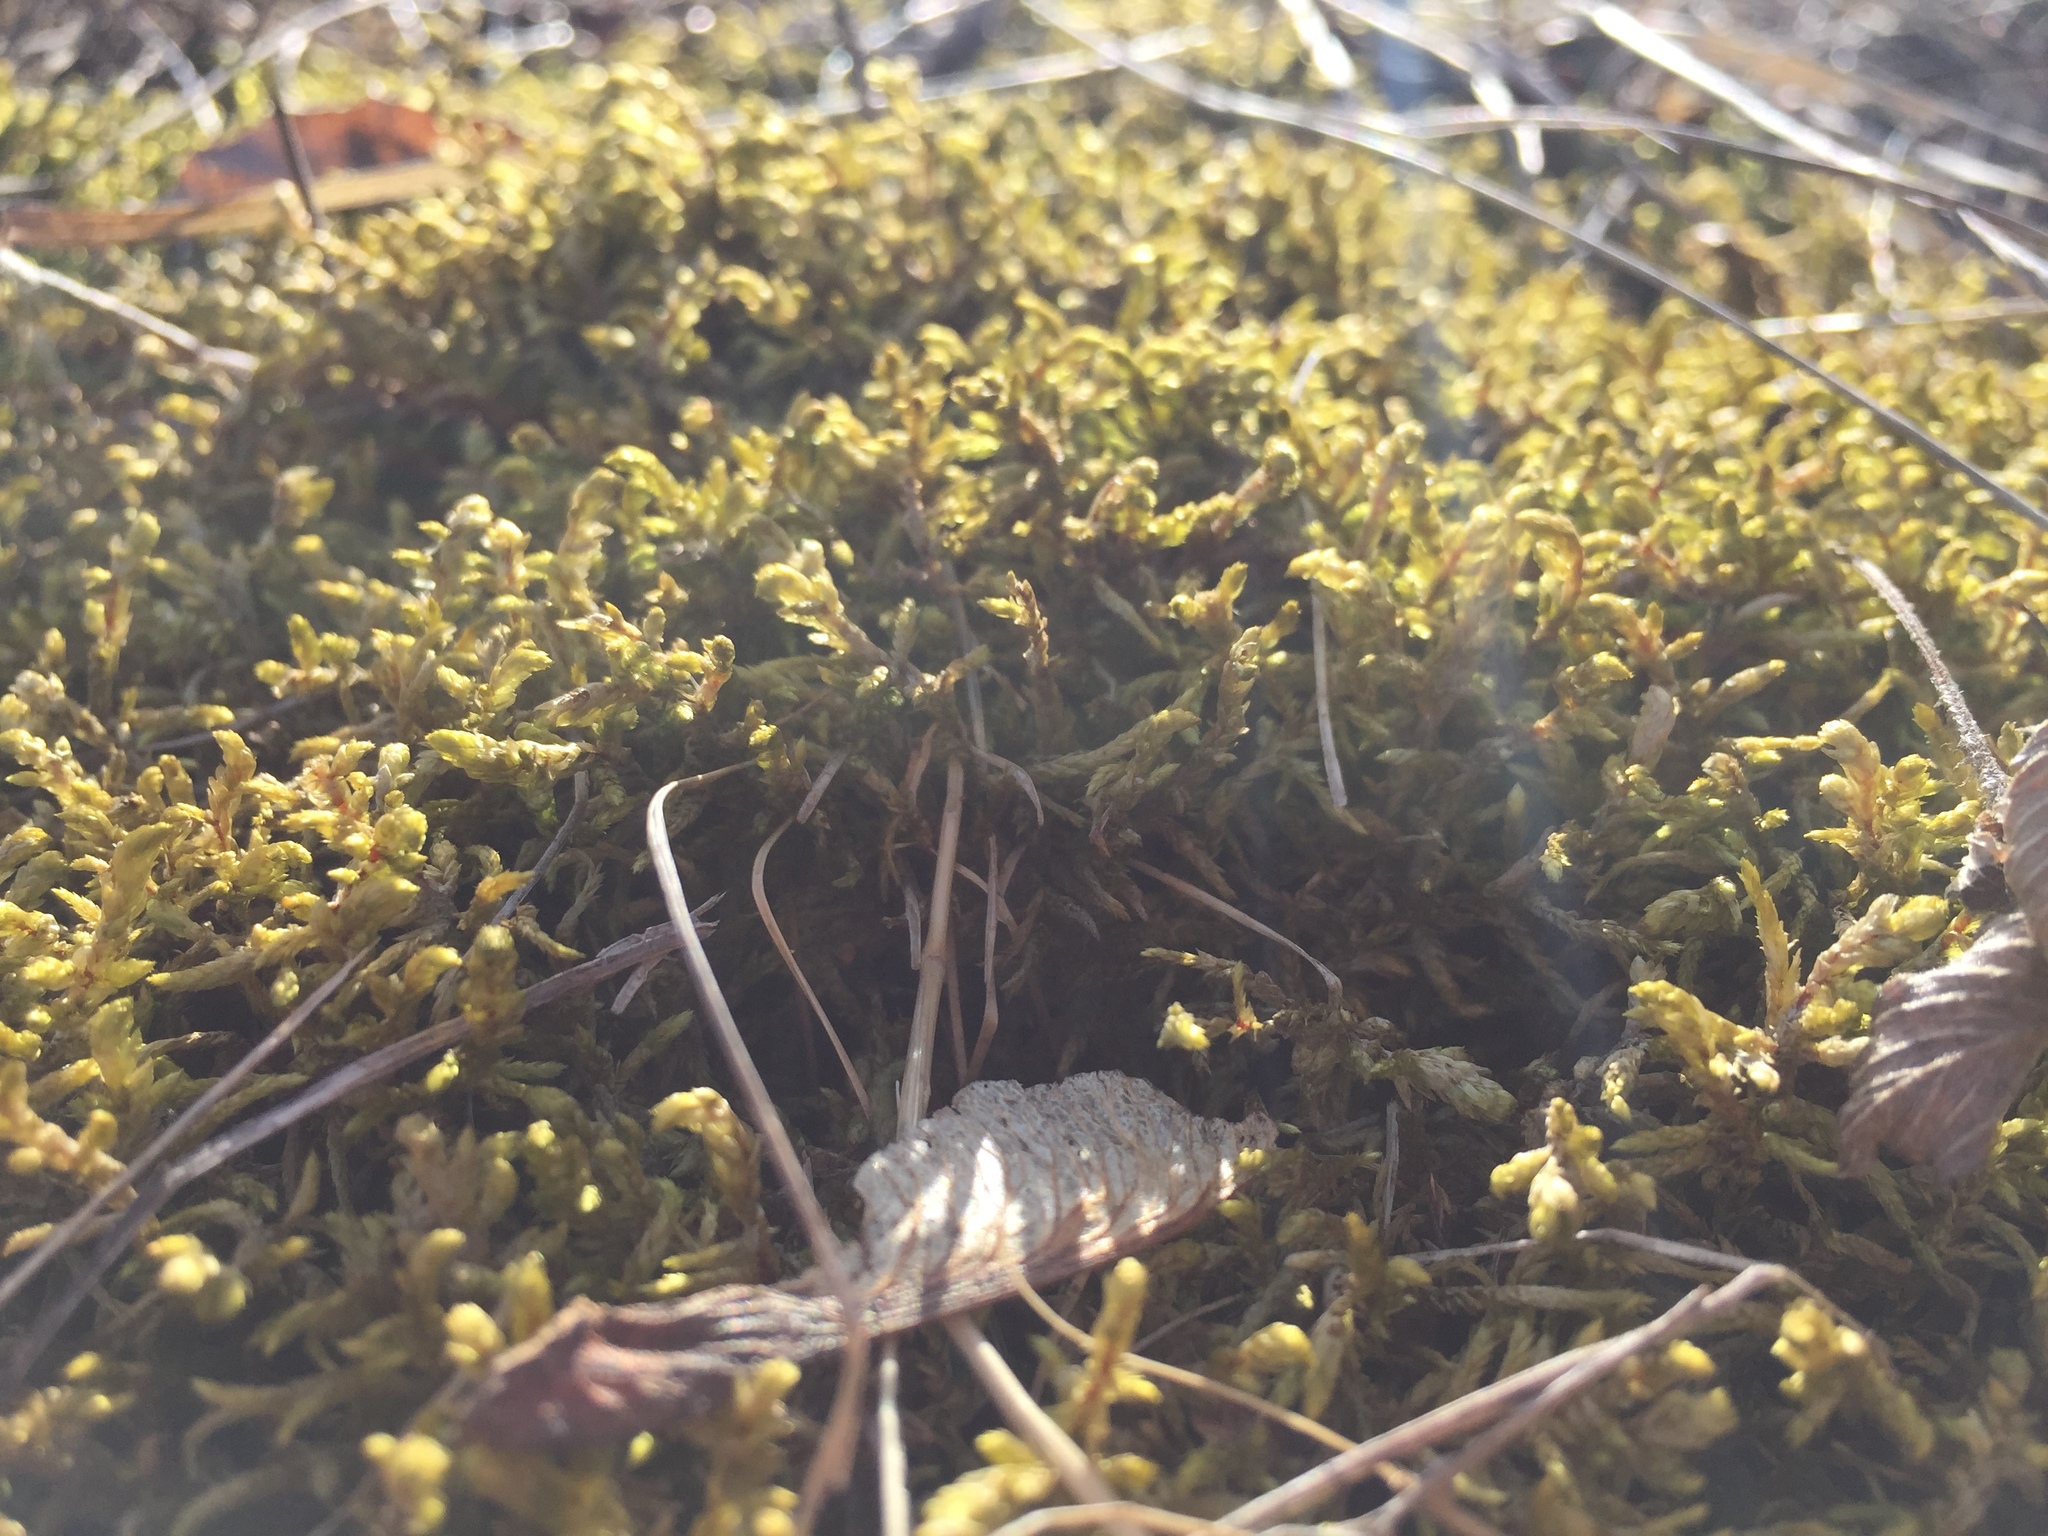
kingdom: Plantae
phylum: Bryophyta
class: Bryopsida
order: Hypnales
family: Hylocomiaceae
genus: Pleurozium
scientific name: Pleurozium schreberi
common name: Red-stemmed feather moss
